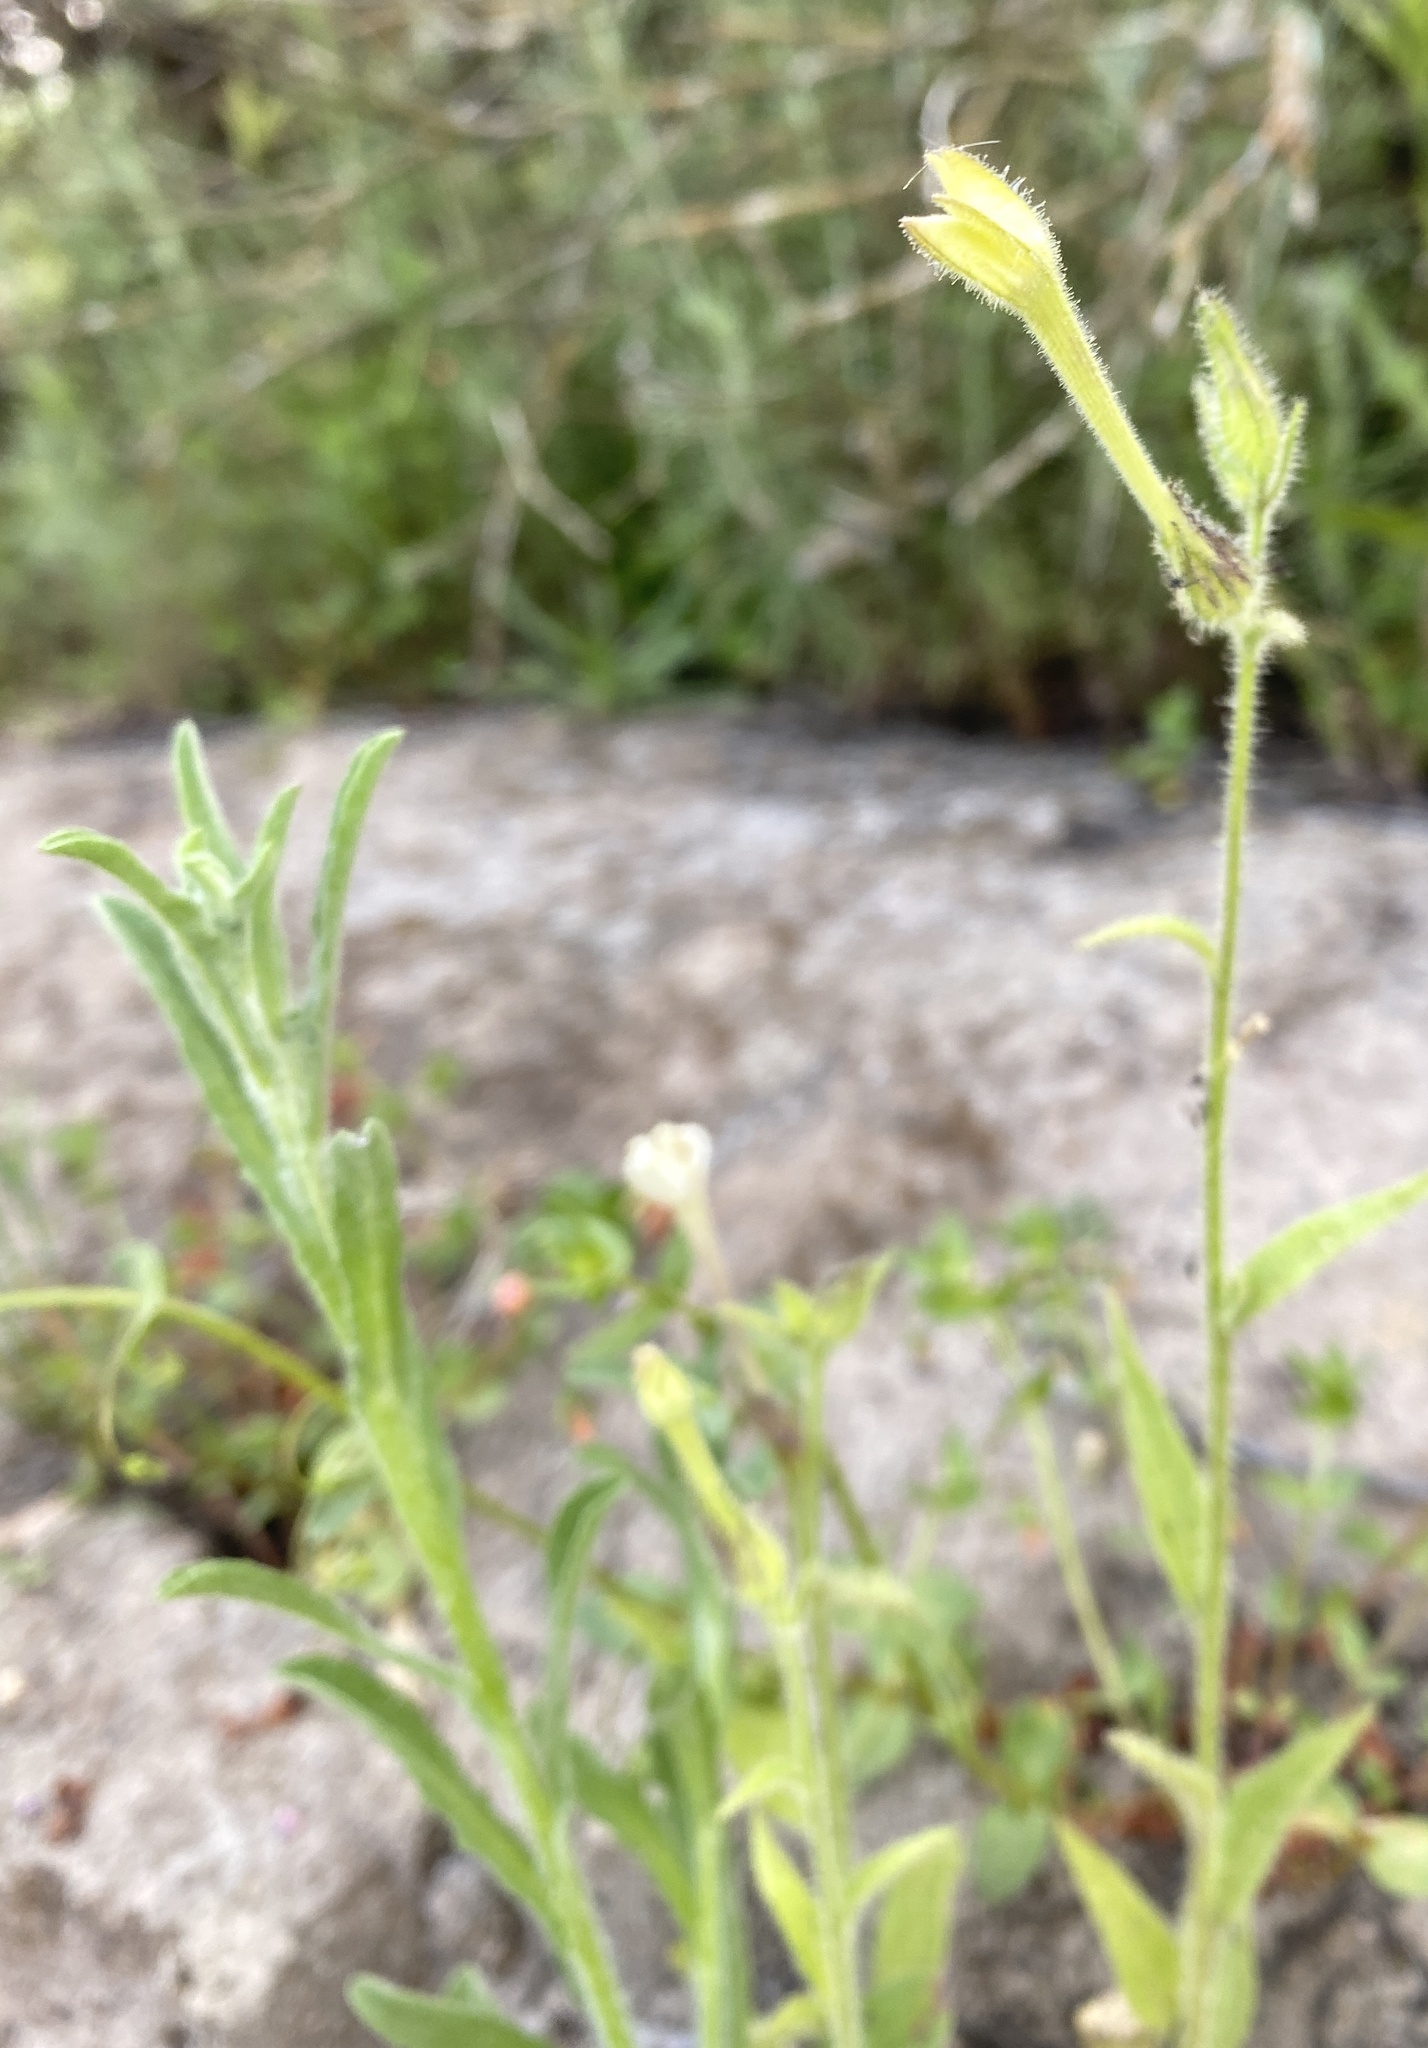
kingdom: Plantae
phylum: Tracheophyta
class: Magnoliopsida
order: Solanales
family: Solanaceae
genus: Nicotiana
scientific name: Nicotiana quadrivalvis
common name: Indian tobacco
